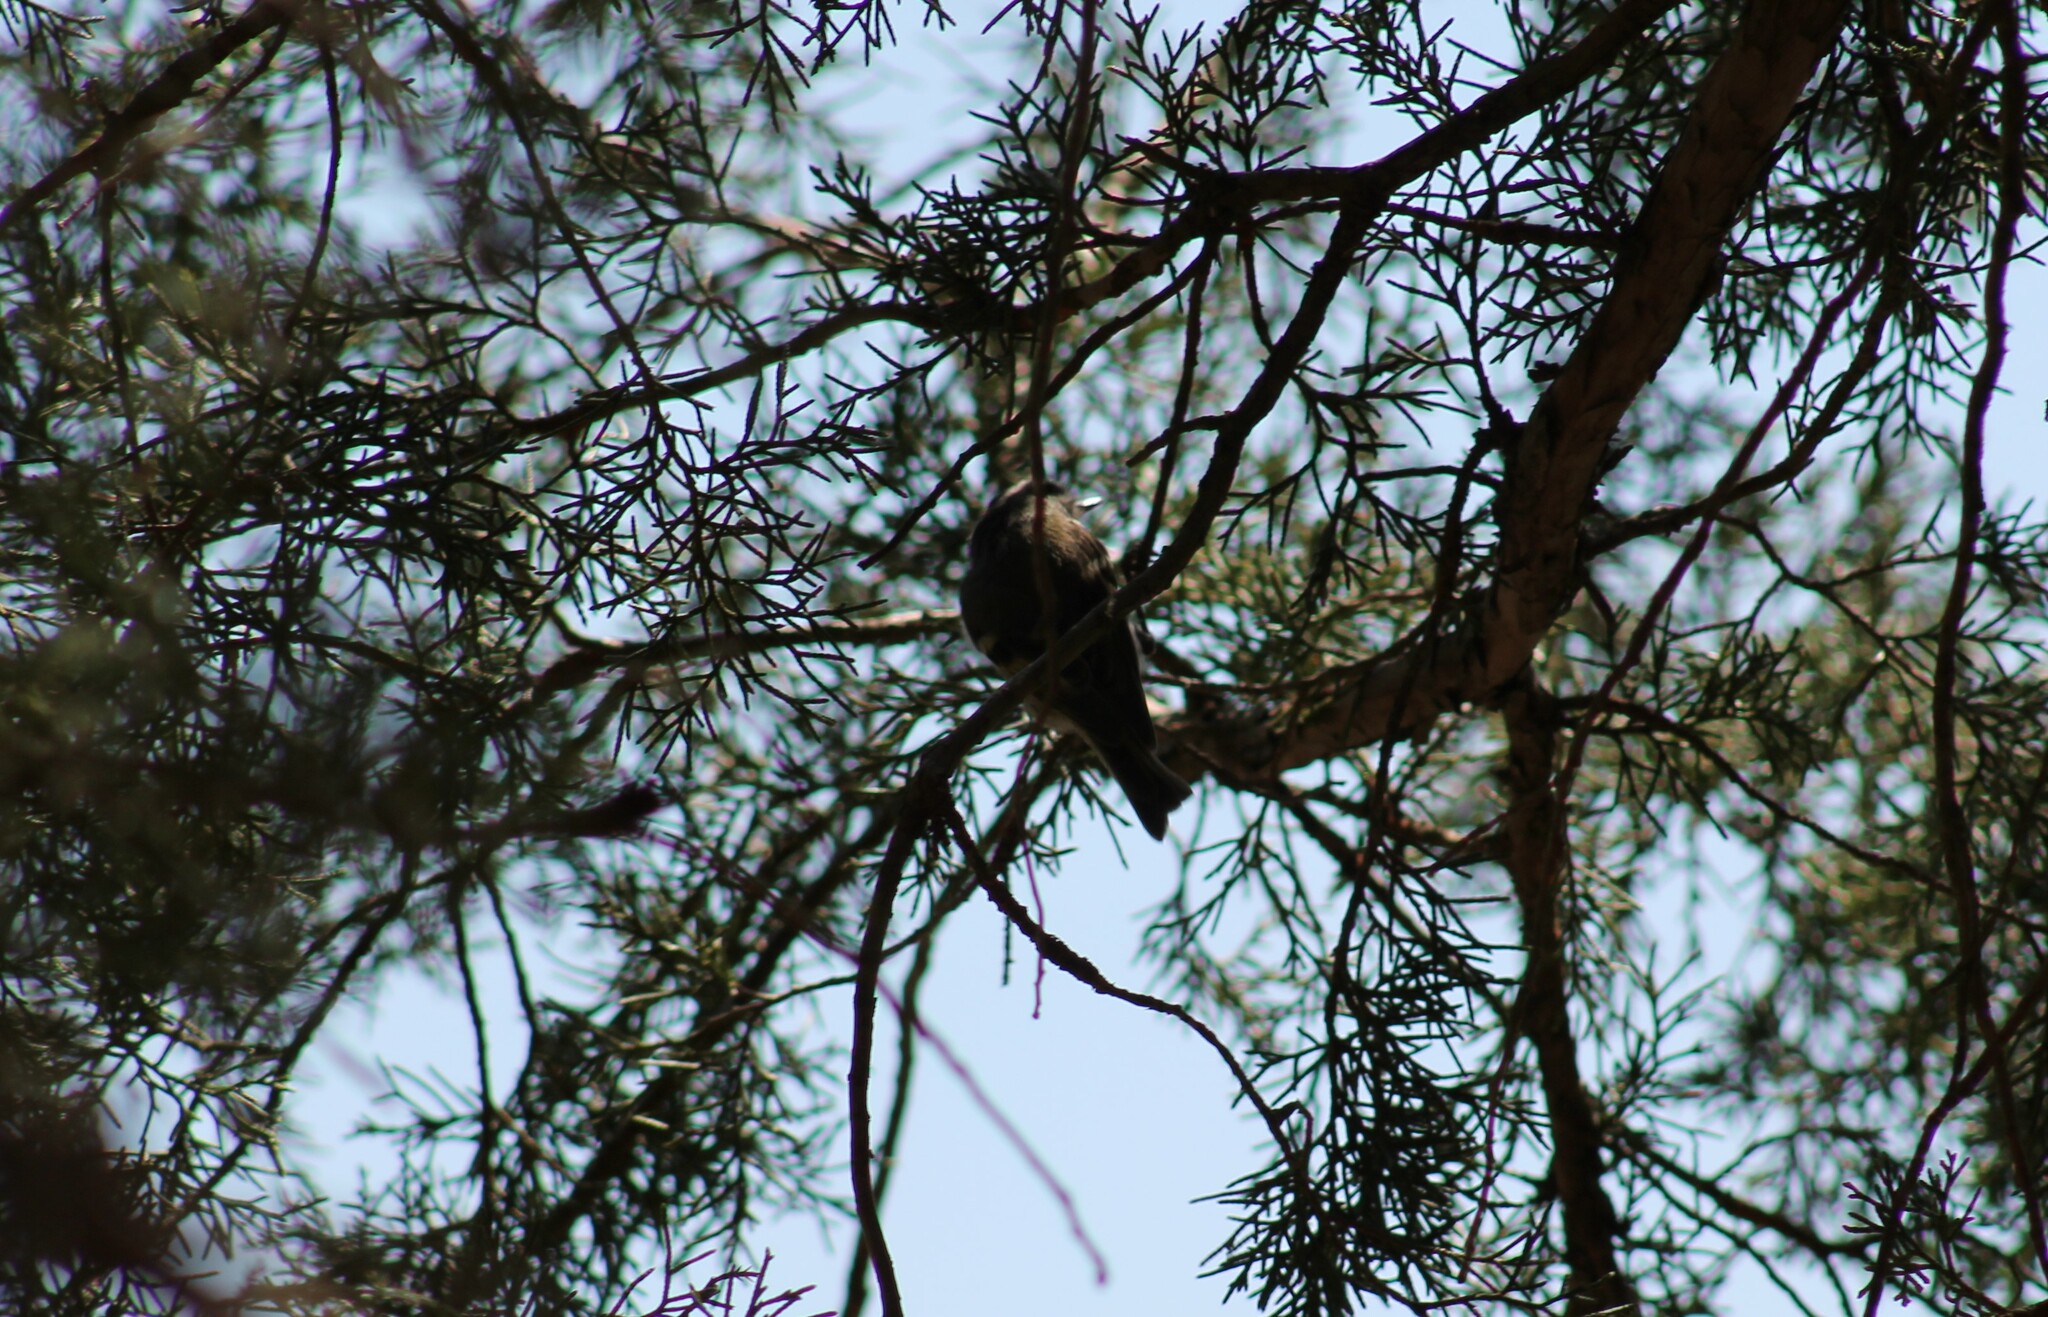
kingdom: Animalia
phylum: Chordata
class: Aves
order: Passeriformes
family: Regulidae
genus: Regulus
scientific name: Regulus satrapa
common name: Golden-crowned kinglet
